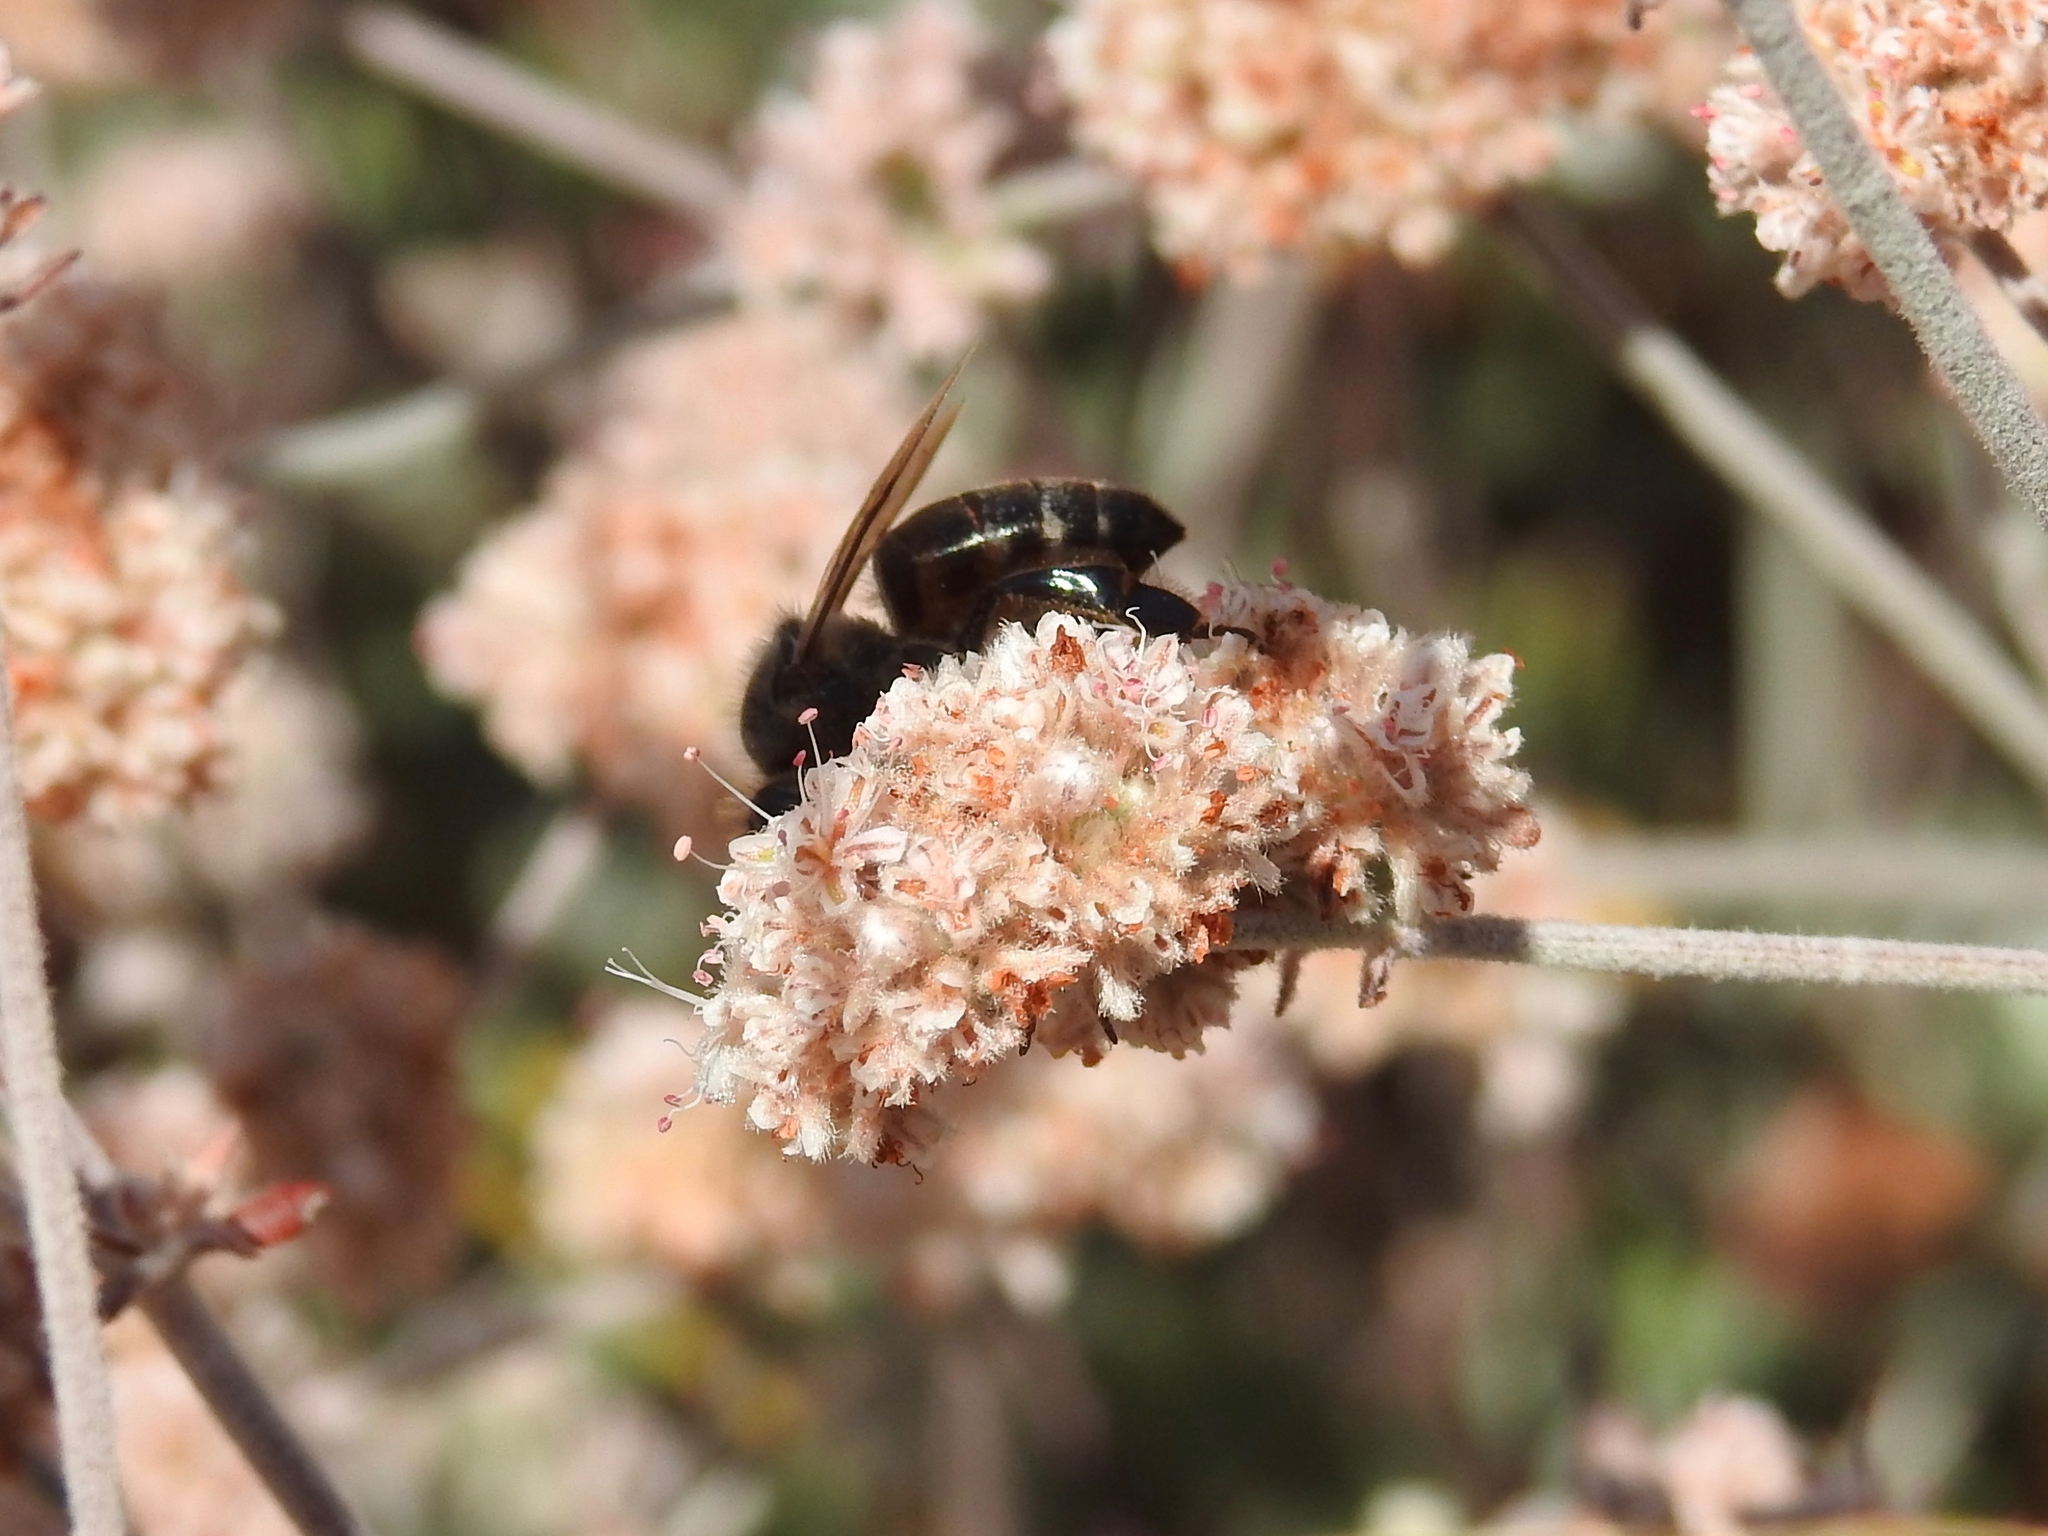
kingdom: Animalia
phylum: Arthropoda
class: Insecta
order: Hymenoptera
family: Apidae
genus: Apis
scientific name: Apis mellifera
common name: Honey bee
